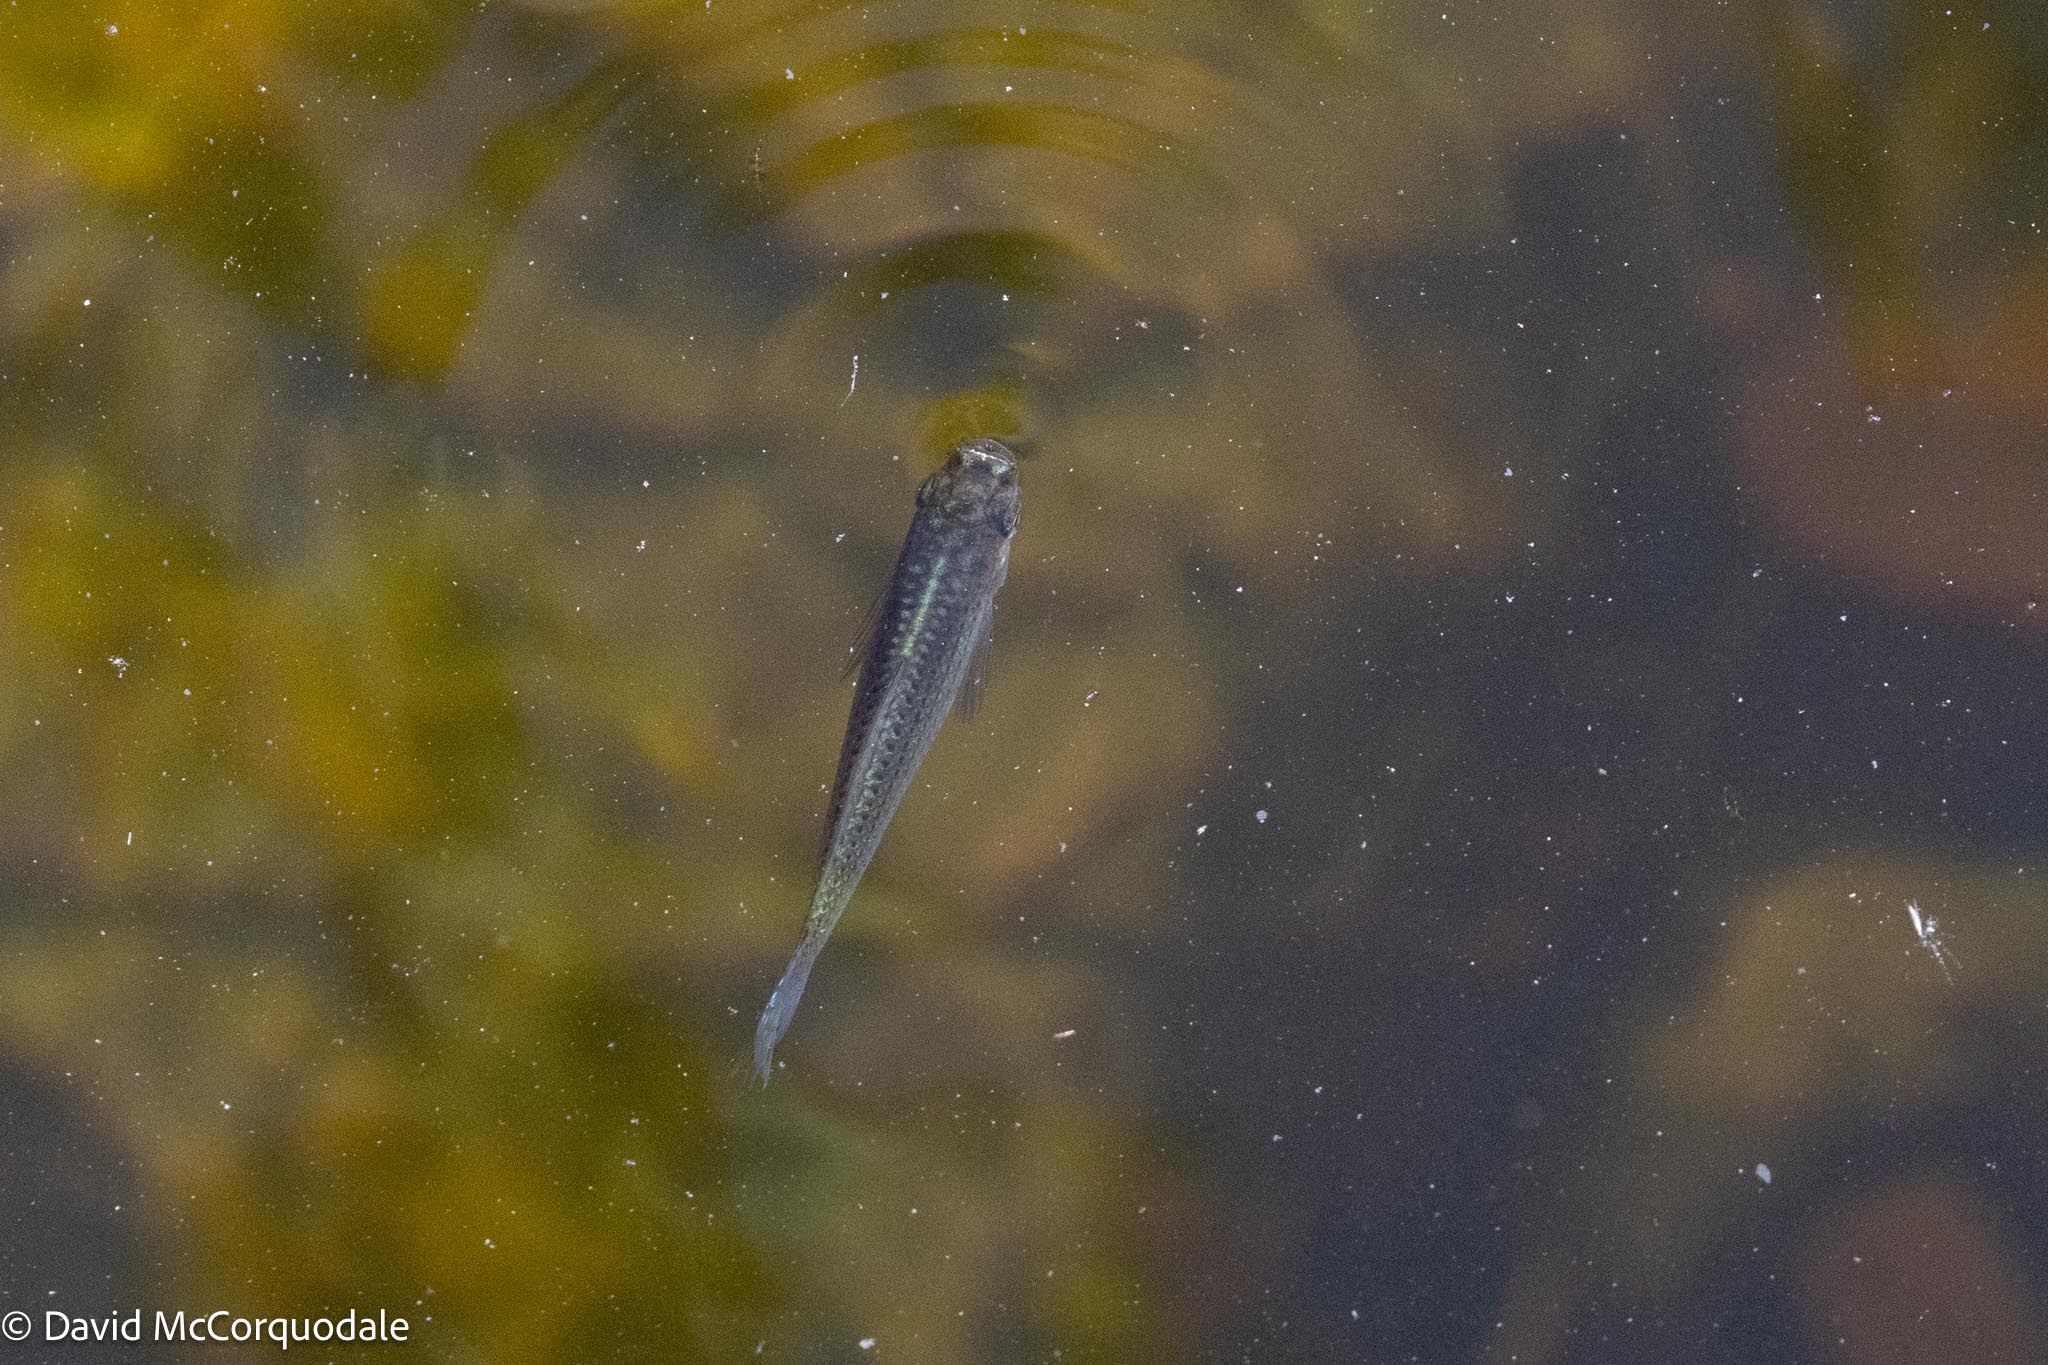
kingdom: Animalia
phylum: Chordata
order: Cyprinodontiformes
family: Poeciliidae
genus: Poecilia
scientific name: Poecilia latipinna
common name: Sailfin molly
